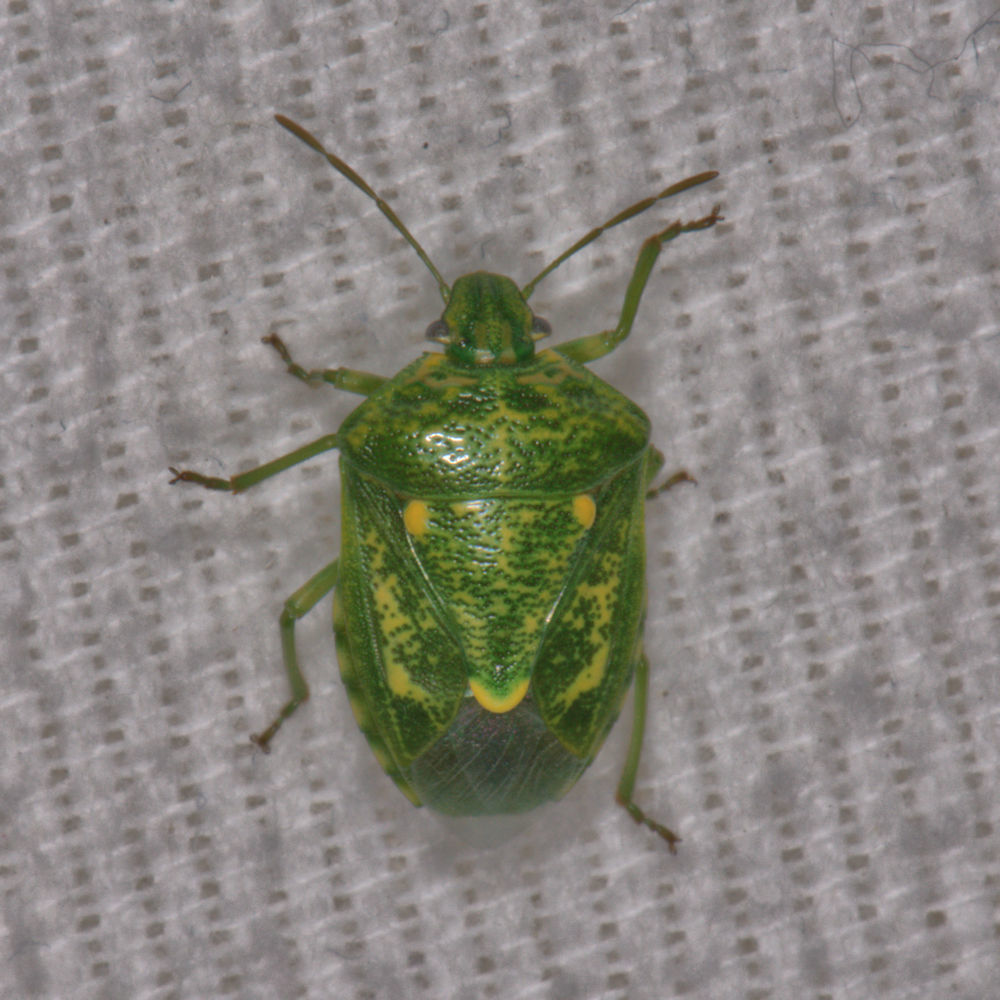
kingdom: Animalia
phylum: Arthropoda
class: Insecta
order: Hemiptera
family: Pentatomidae
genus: Banasa
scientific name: Banasa euchlora
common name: Cedar berry bug
